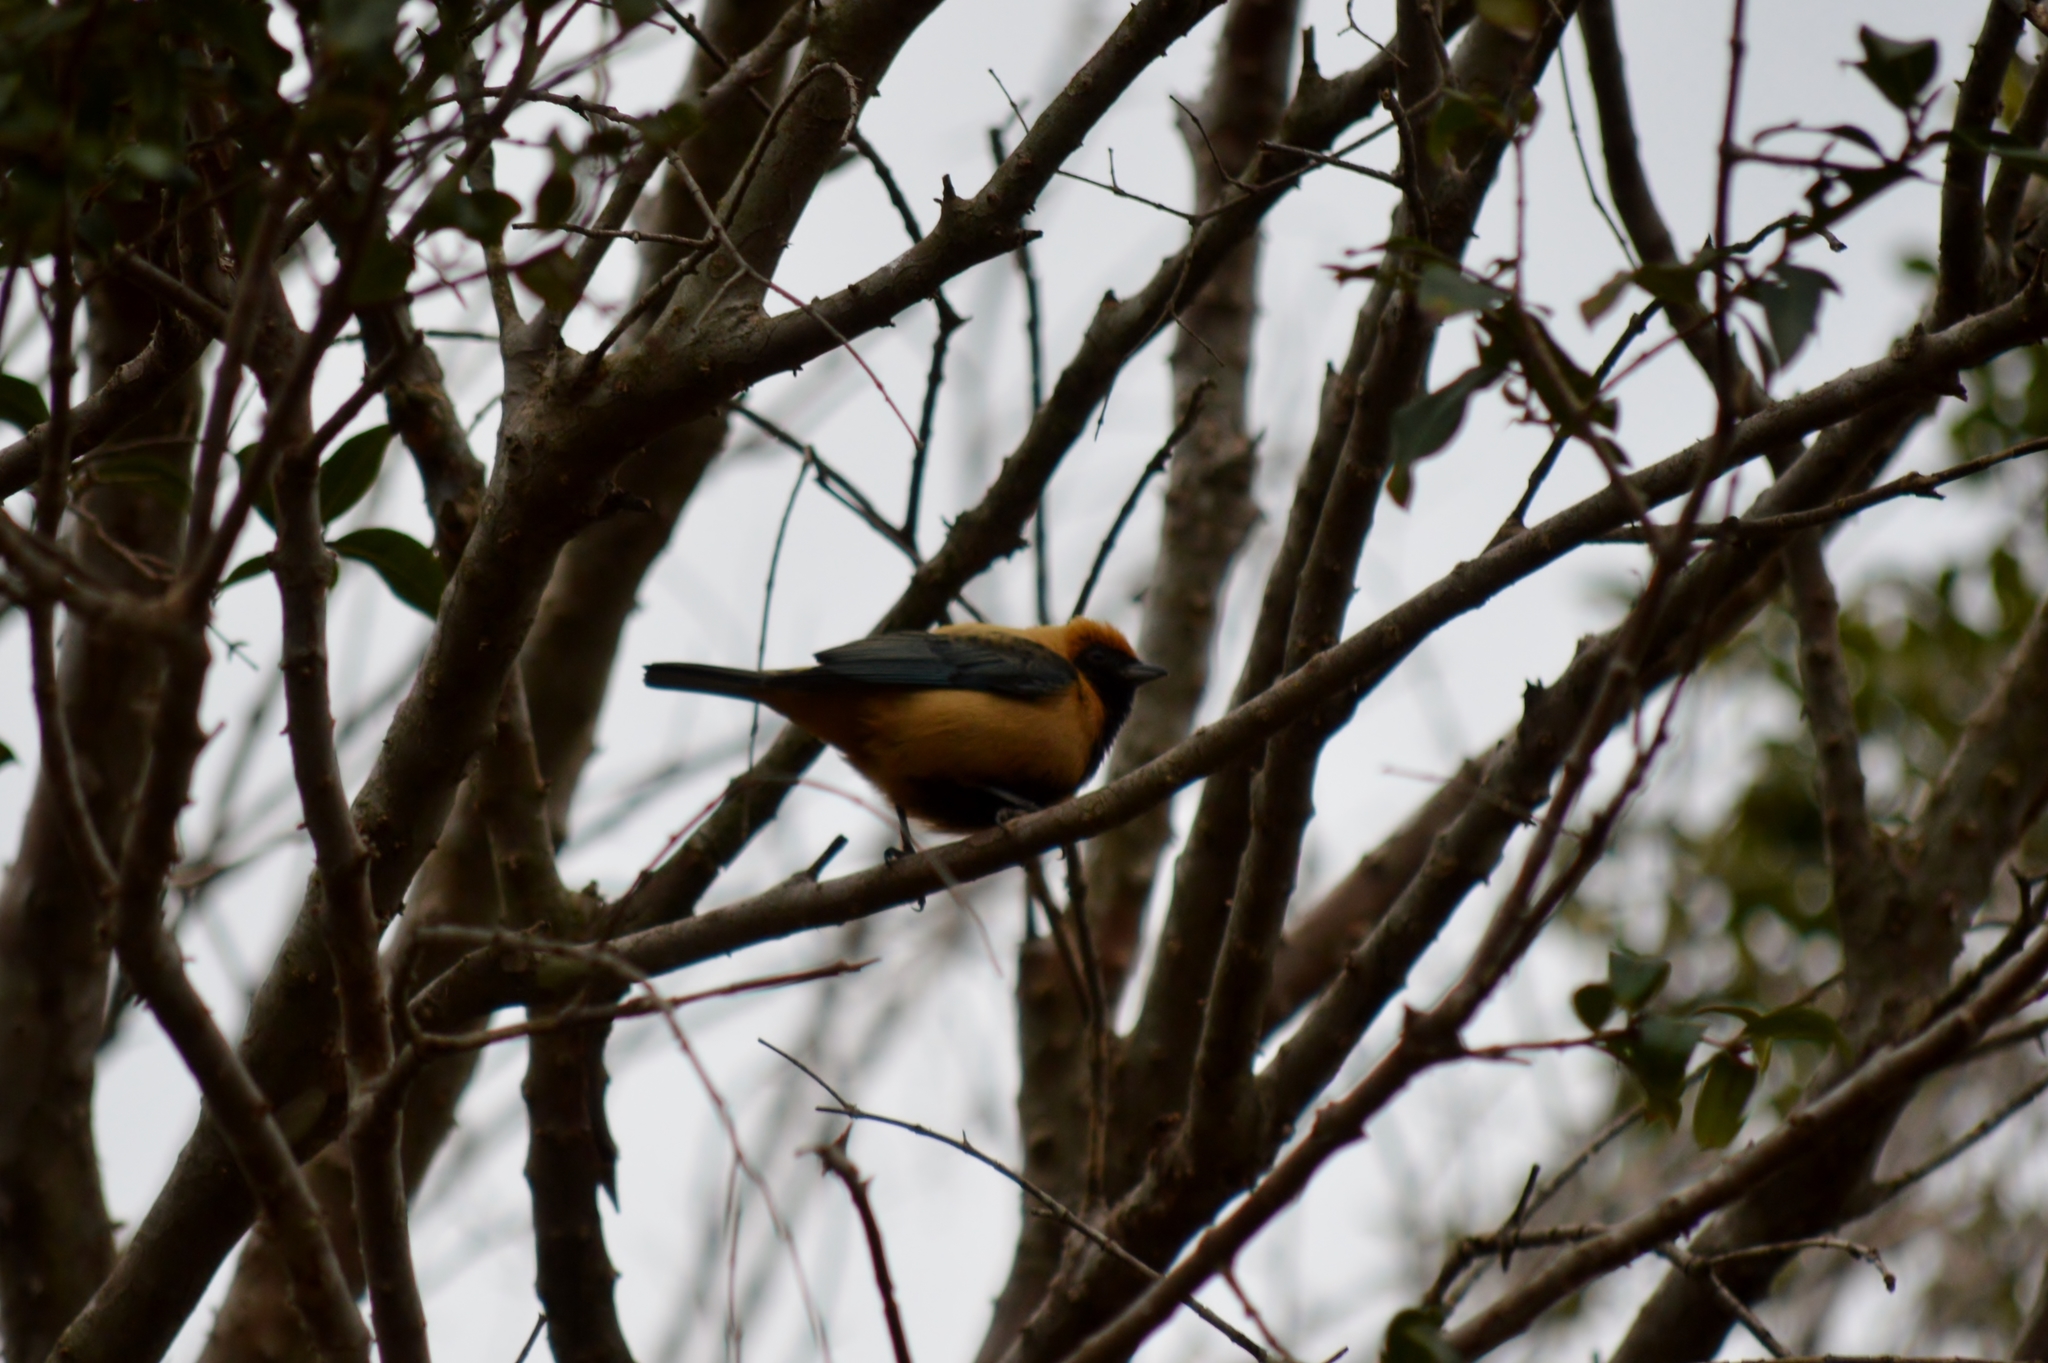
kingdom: Animalia
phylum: Chordata
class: Aves
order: Passeriformes
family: Thraupidae
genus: Stilpnia
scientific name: Stilpnia cayana
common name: Burnished-buff tanager
